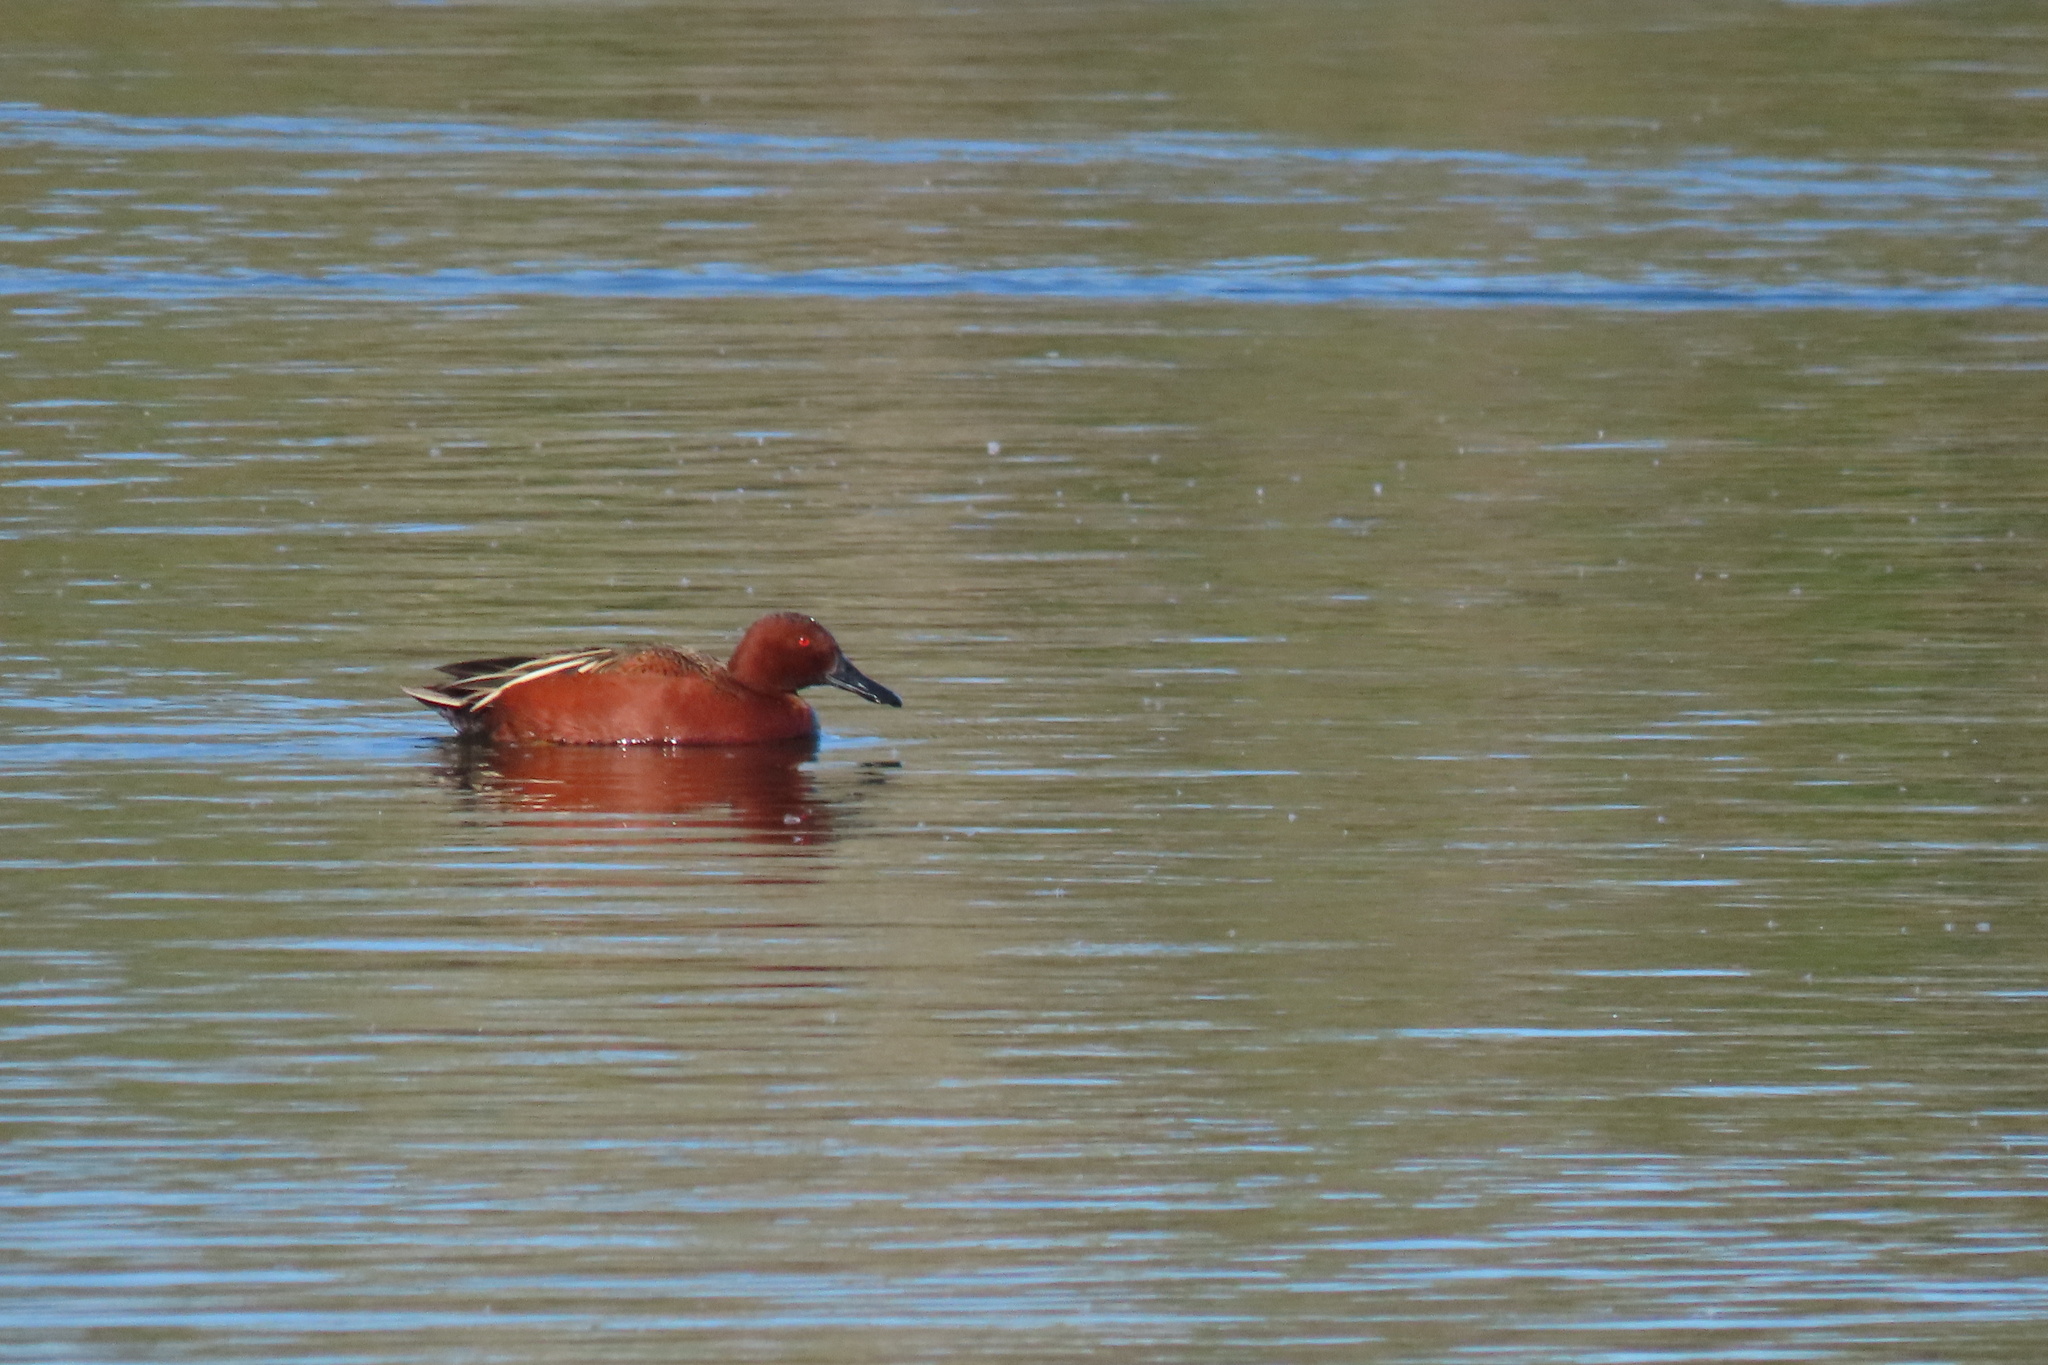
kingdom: Animalia
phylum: Chordata
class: Aves
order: Anseriformes
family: Anatidae
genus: Spatula
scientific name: Spatula cyanoptera
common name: Cinnamon teal
